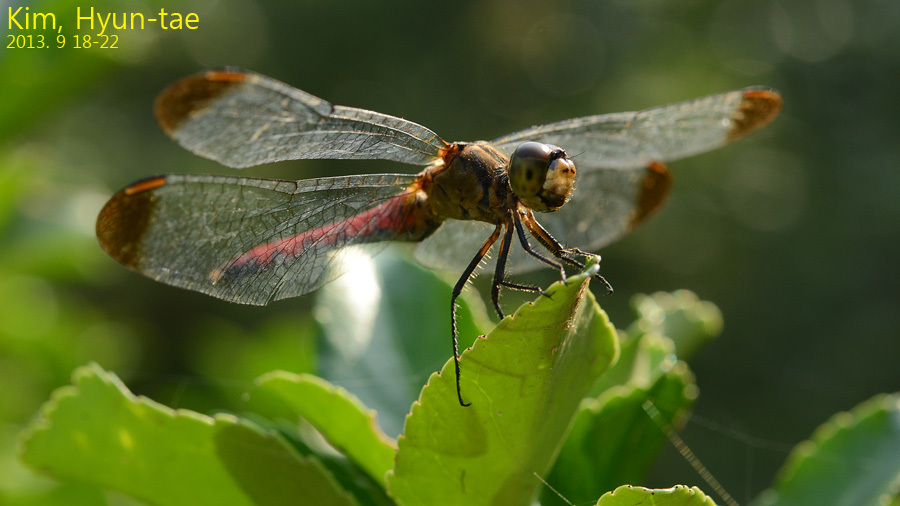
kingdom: Animalia
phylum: Arthropoda
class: Insecta
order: Odonata
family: Libellulidae
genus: Sympetrum
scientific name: Sympetrum eroticum
